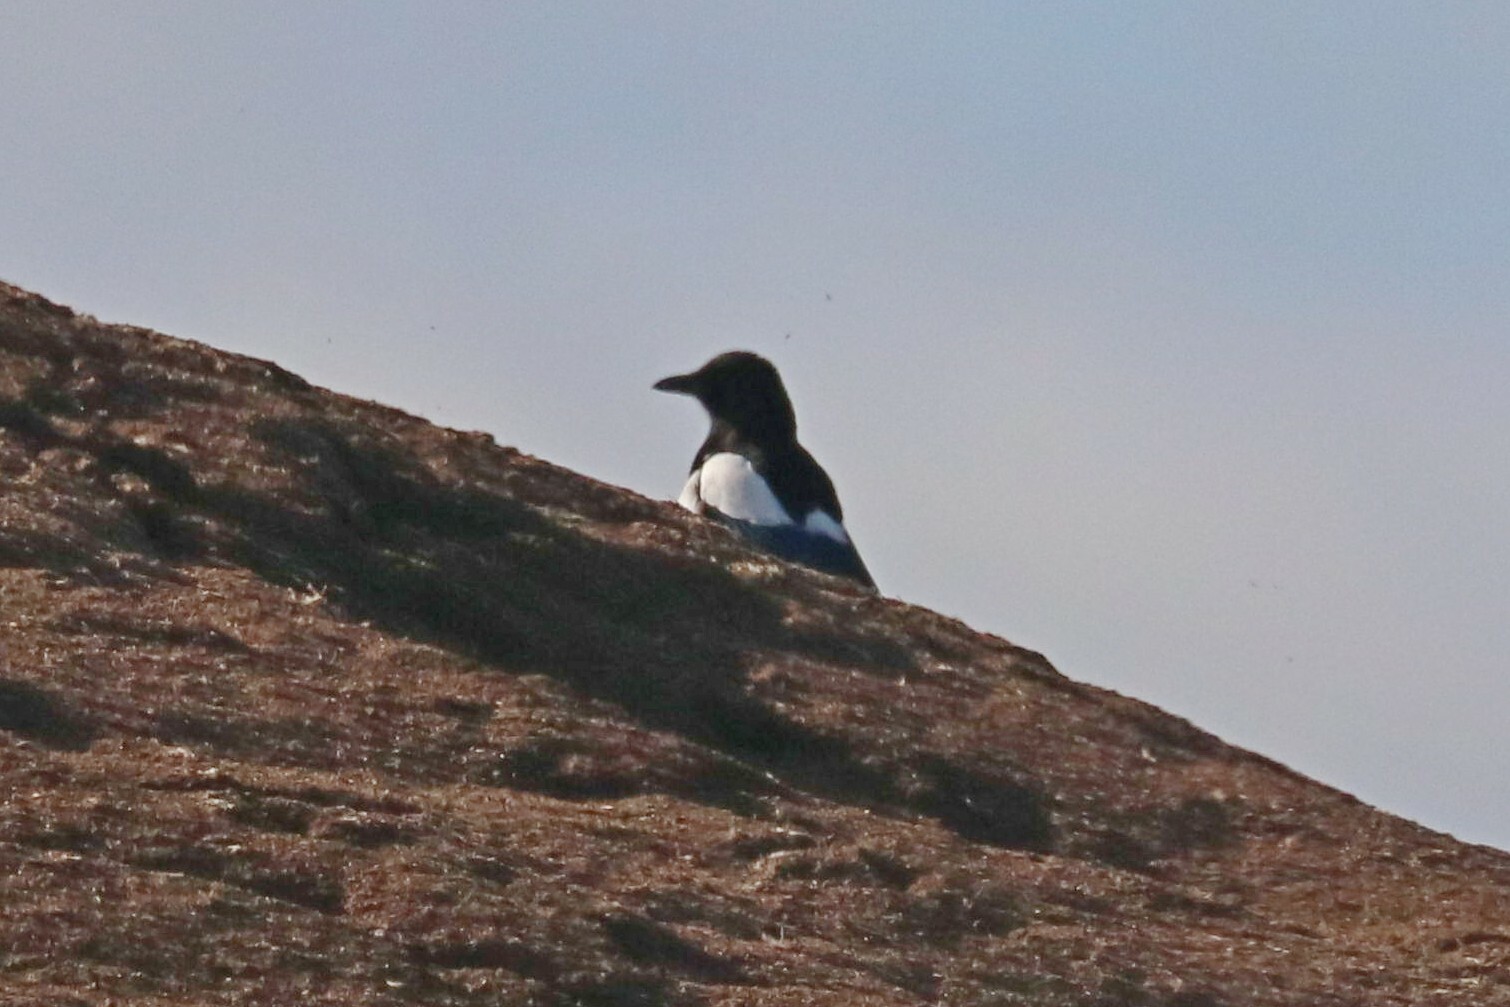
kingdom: Animalia
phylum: Chordata
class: Aves
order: Passeriformes
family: Corvidae
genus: Pica
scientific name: Pica pica
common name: Eurasian magpie
